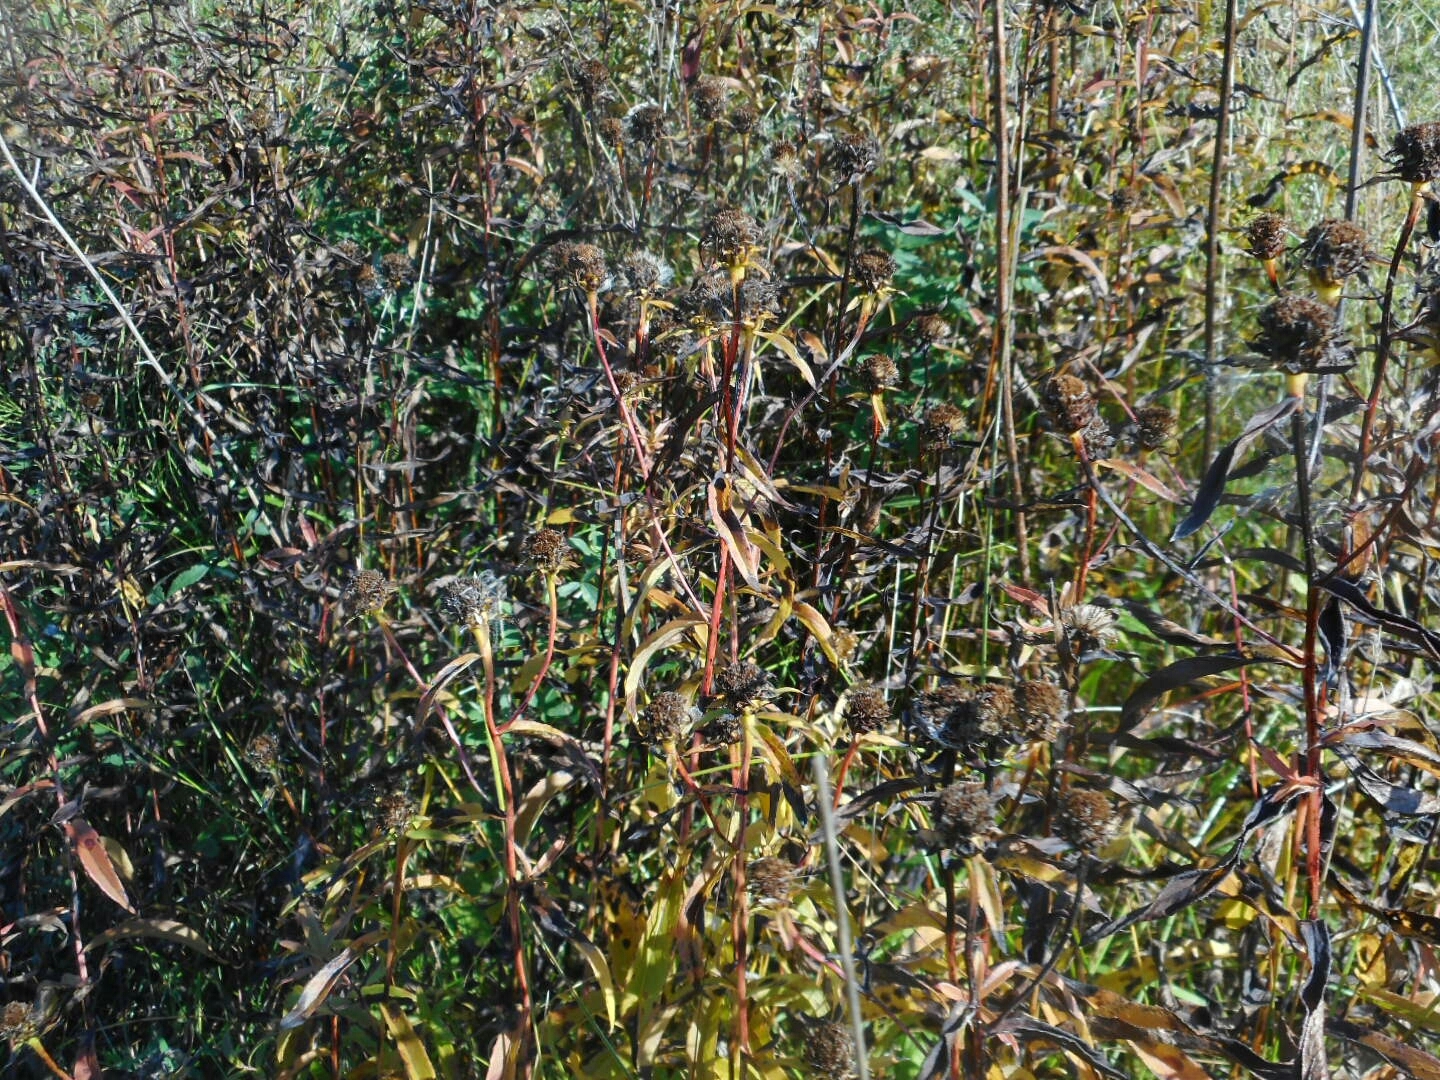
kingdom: Plantae
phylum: Tracheophyta
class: Magnoliopsida
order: Asterales
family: Asteraceae
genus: Pentanema
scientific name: Pentanema salicinum
